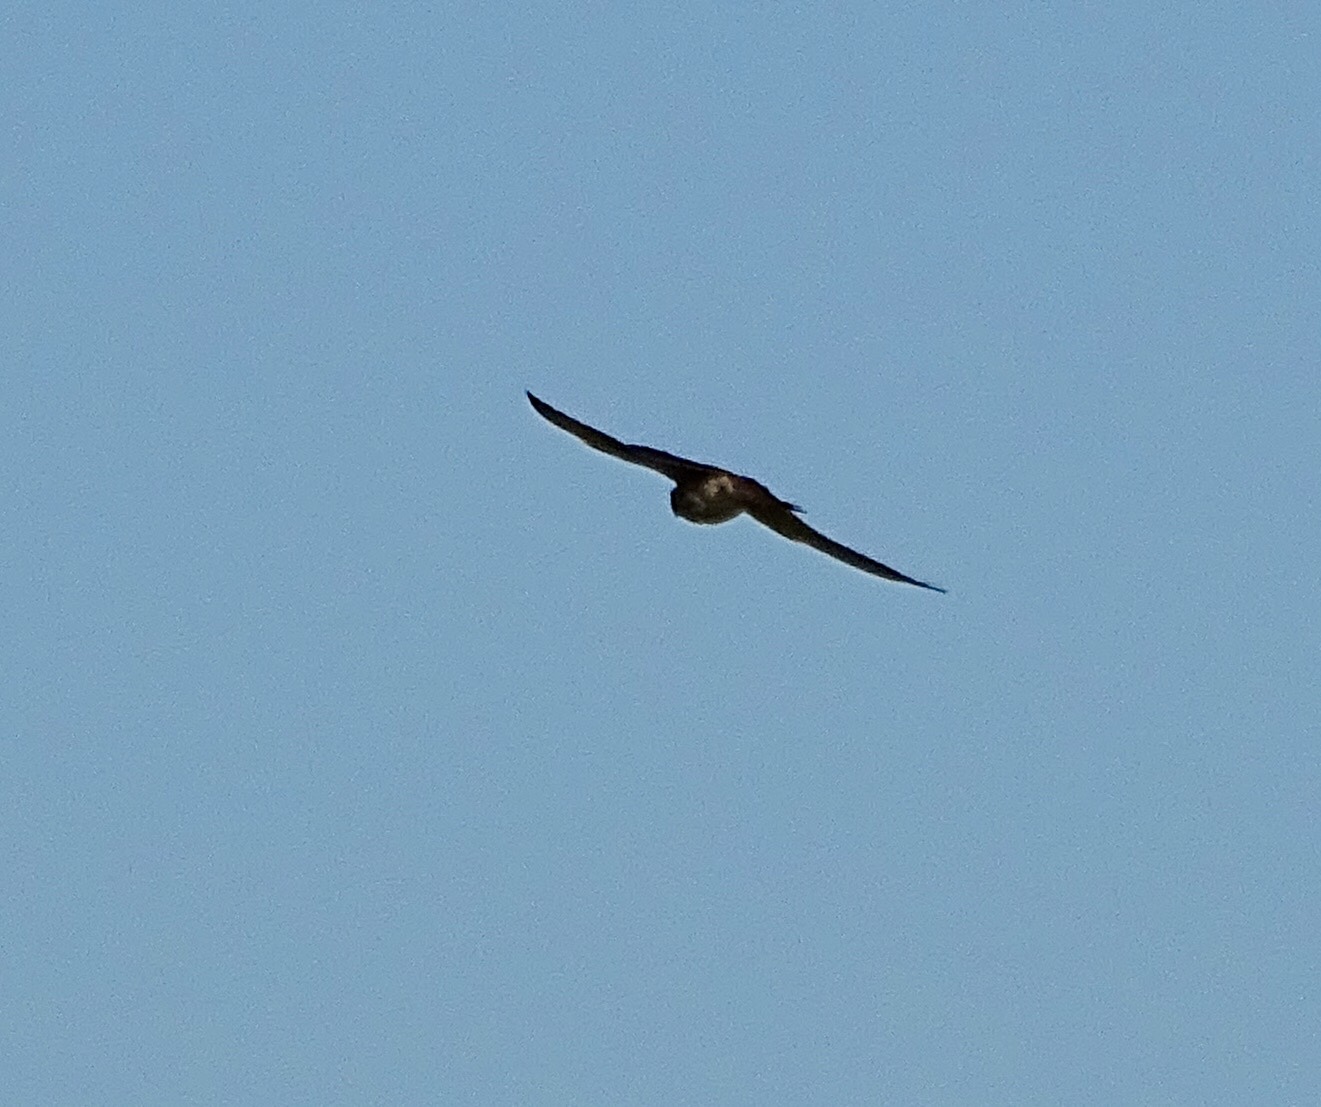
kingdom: Animalia
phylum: Chordata
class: Aves
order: Accipitriformes
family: Accipitridae
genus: Accipiter
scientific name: Accipiter cooperii
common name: Cooper's hawk
